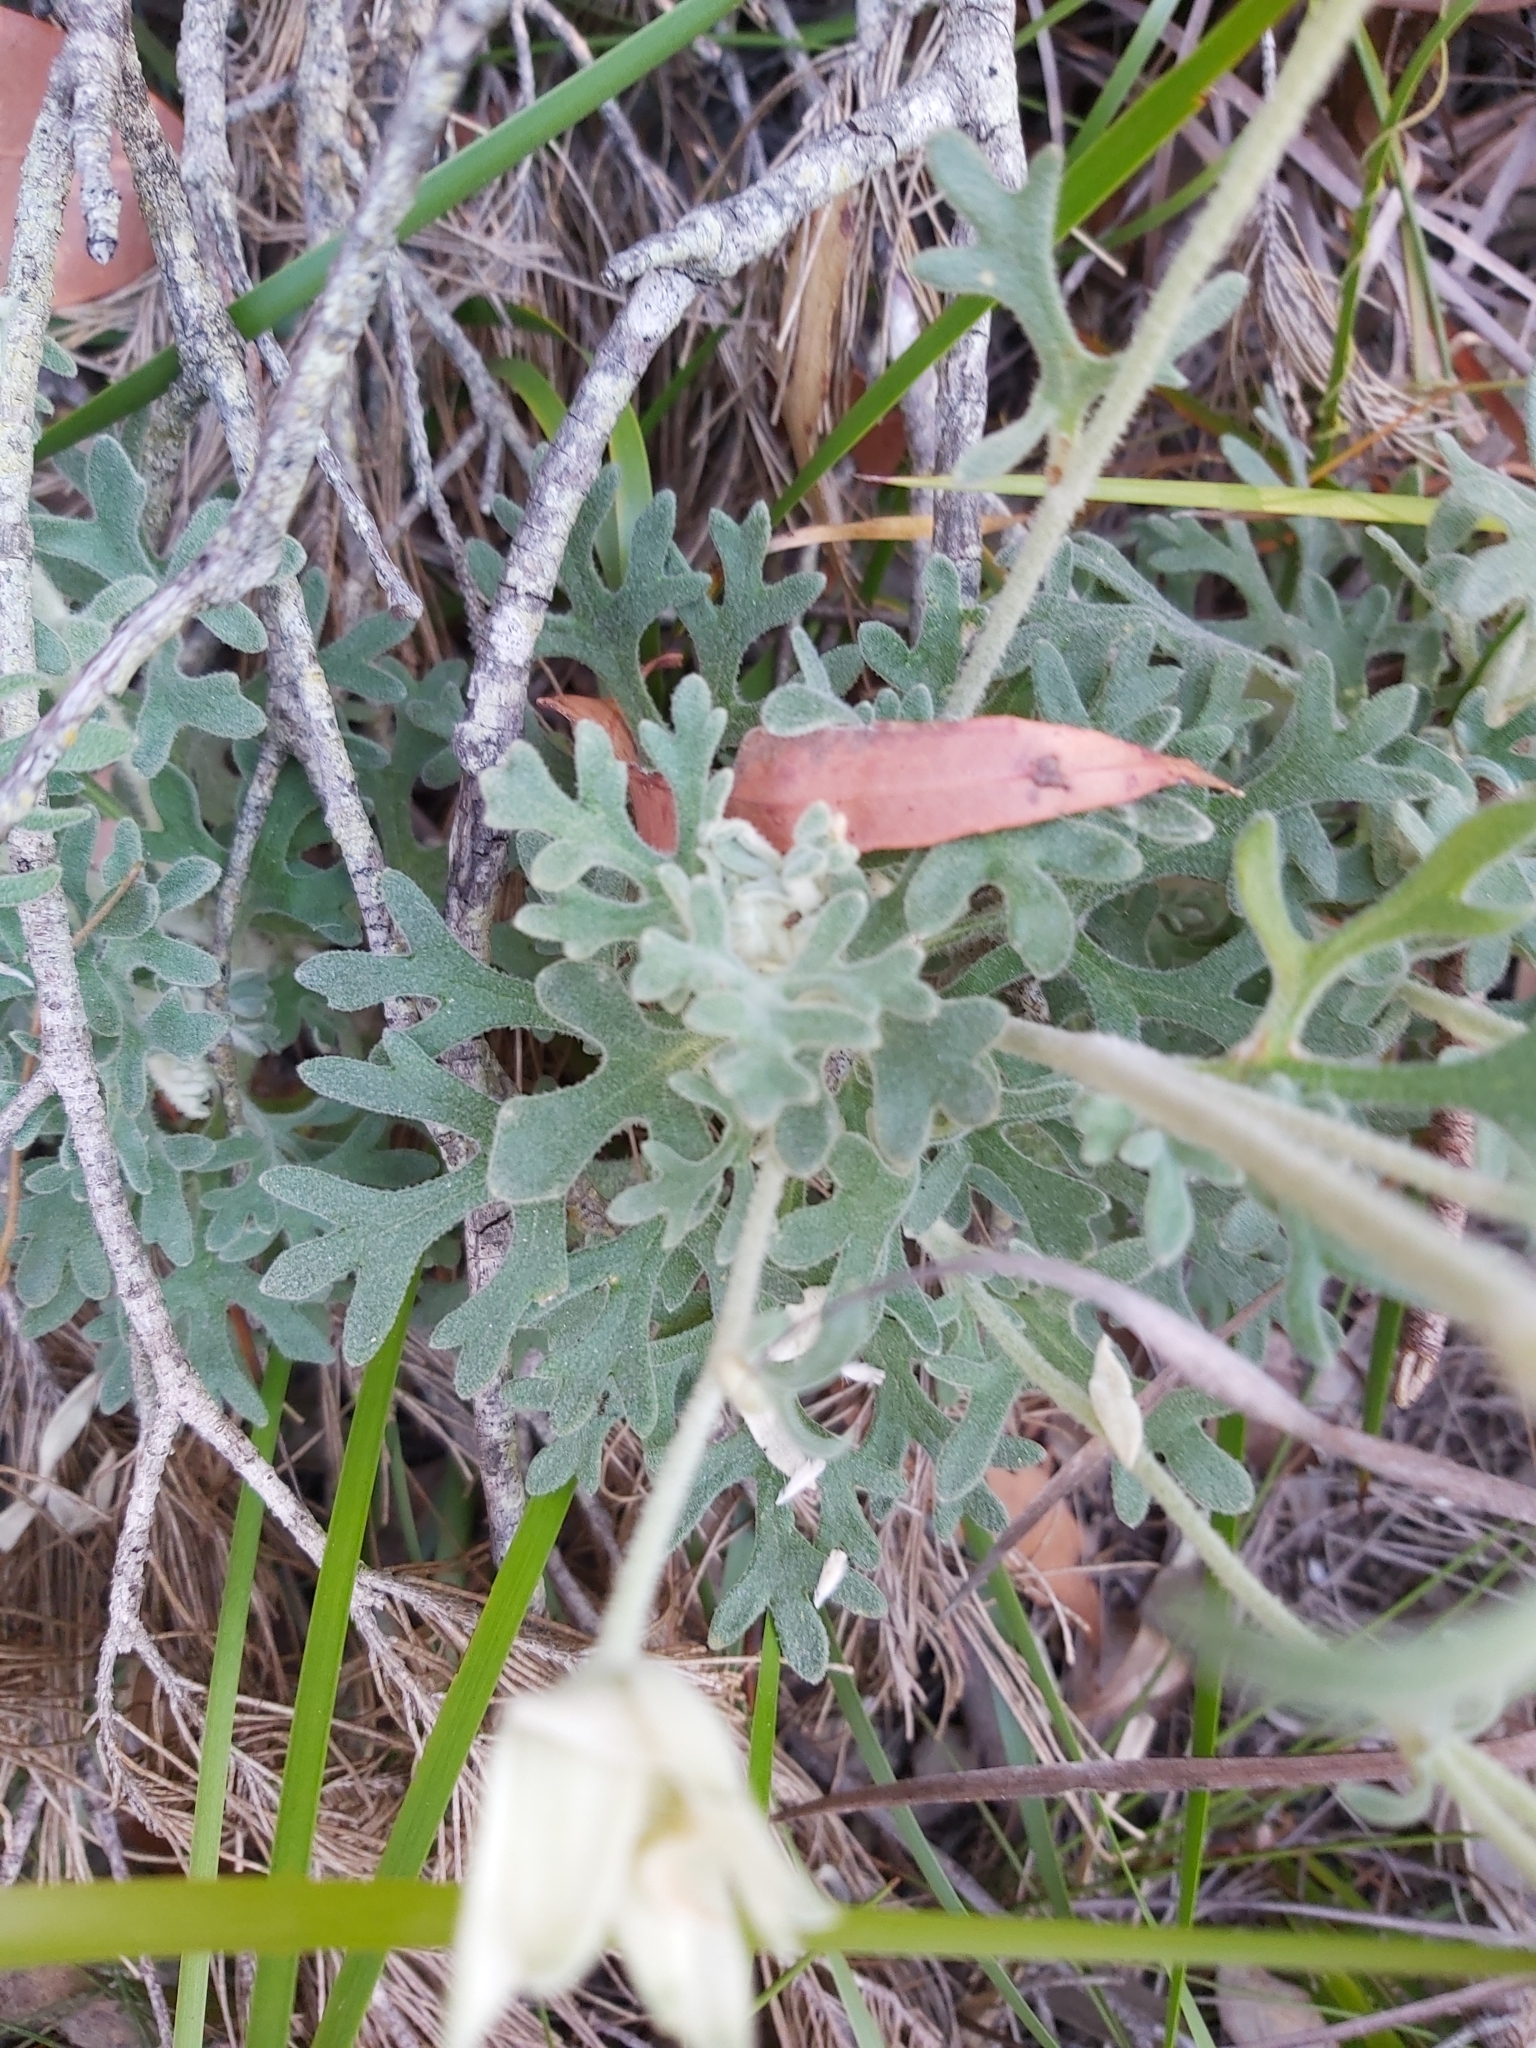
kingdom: Plantae
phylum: Tracheophyta
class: Magnoliopsida
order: Apiales
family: Apiaceae
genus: Actinotus
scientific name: Actinotus helianthi
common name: Flannel-flower
